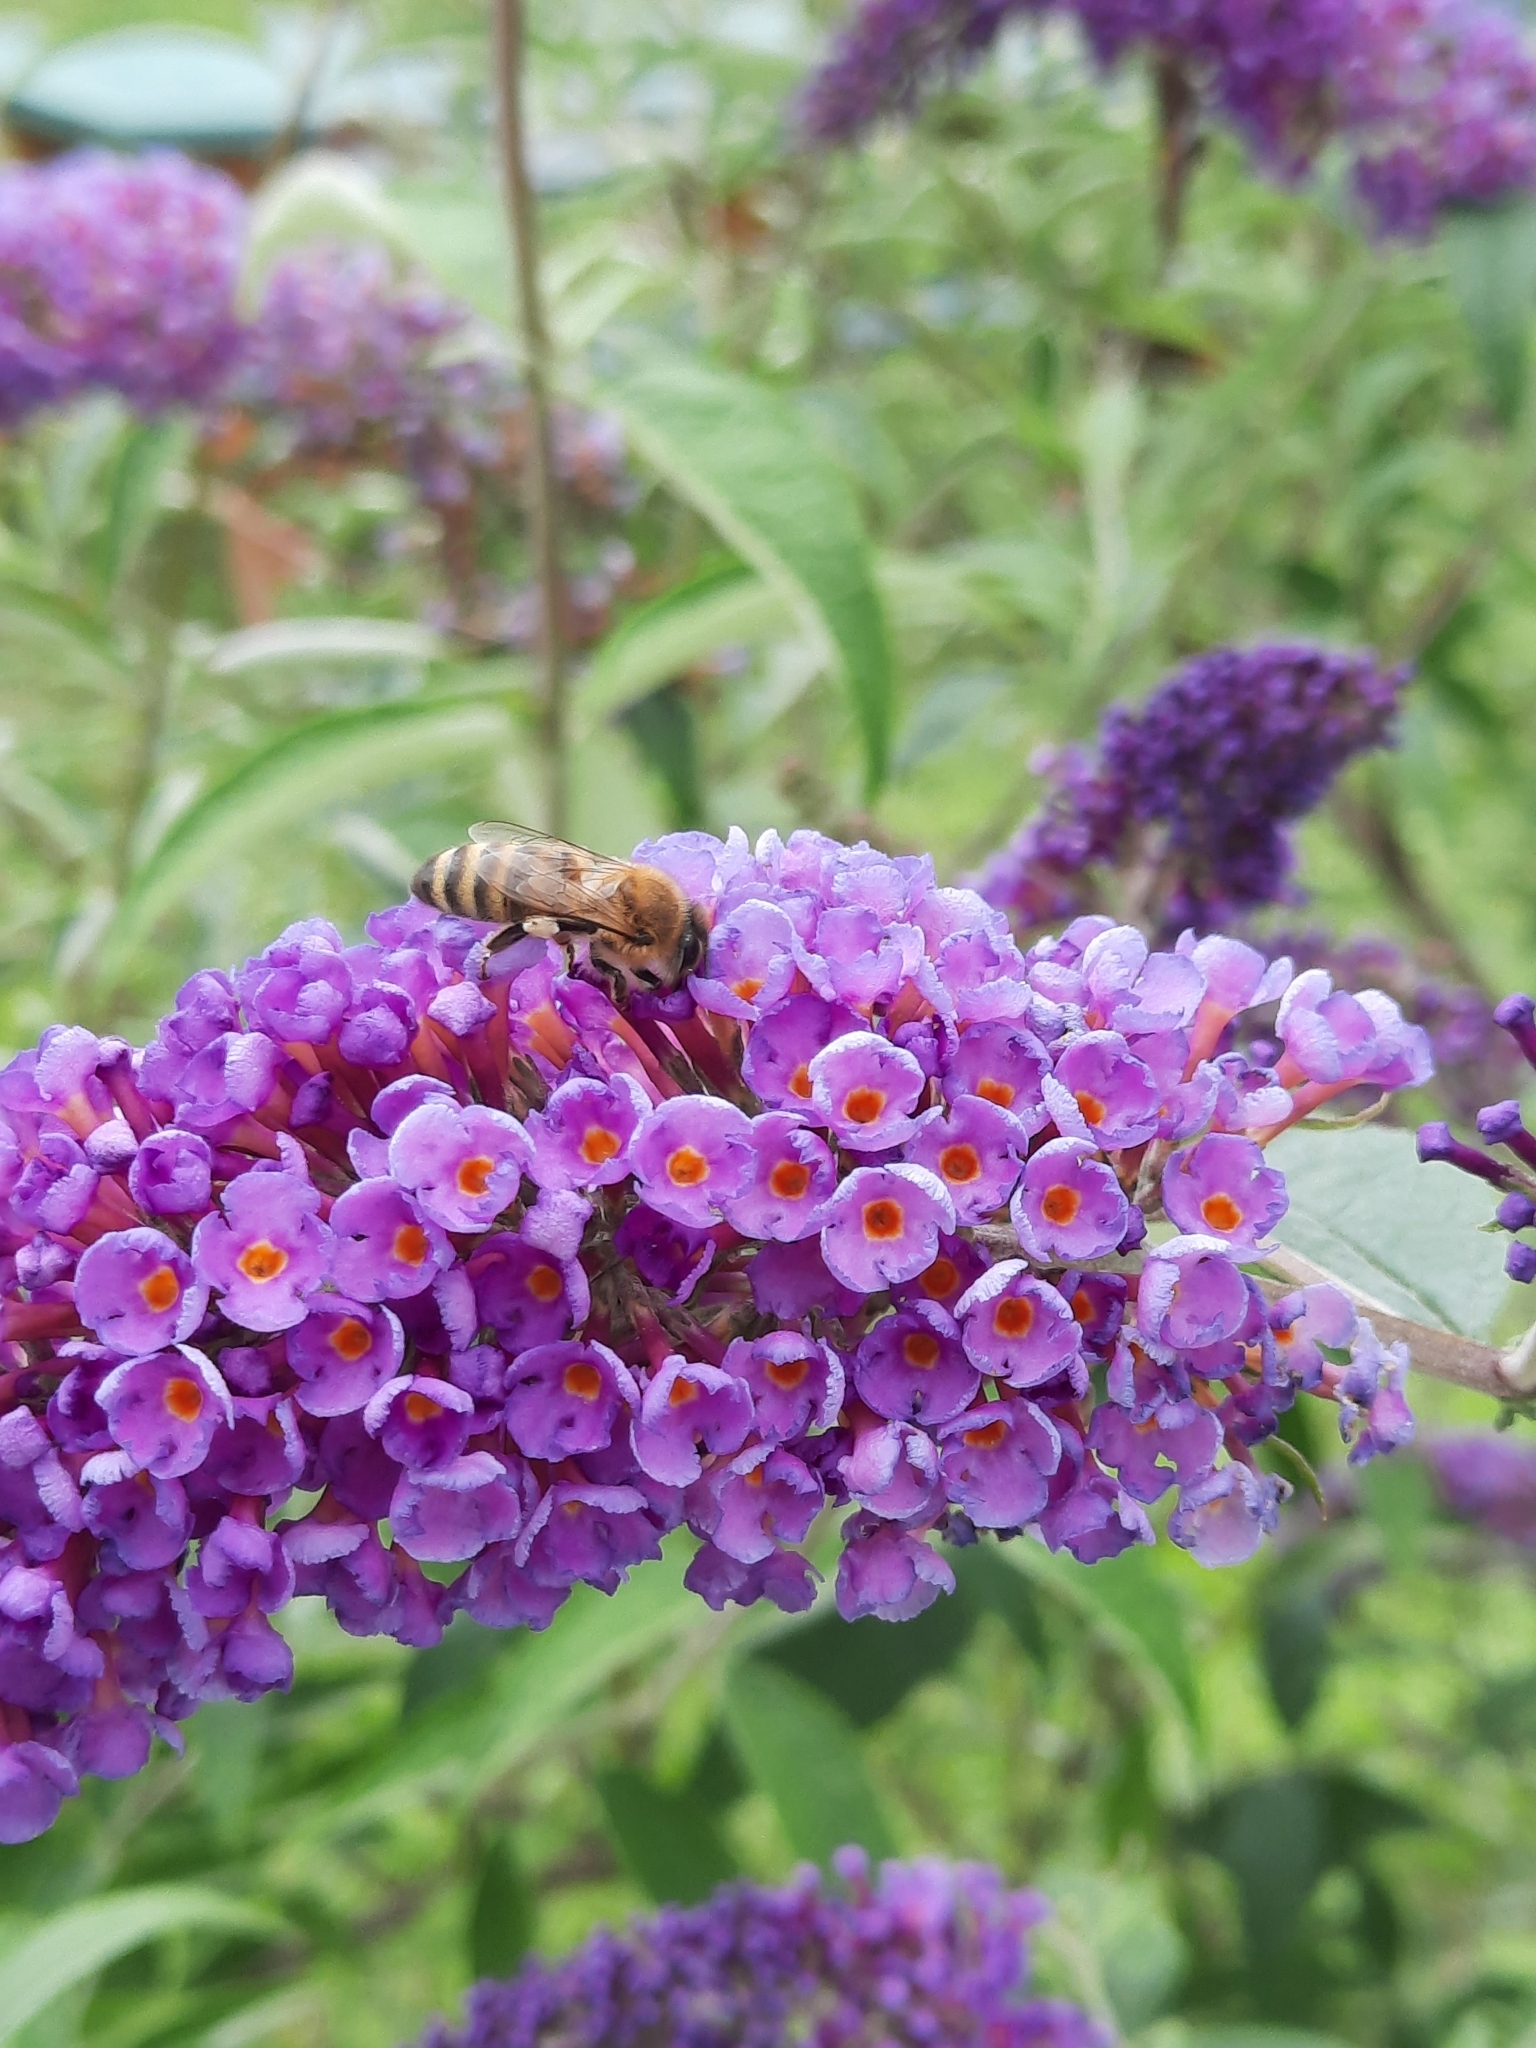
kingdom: Animalia
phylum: Arthropoda
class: Insecta
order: Hymenoptera
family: Apidae
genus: Apis
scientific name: Apis mellifera
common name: Honey bee
